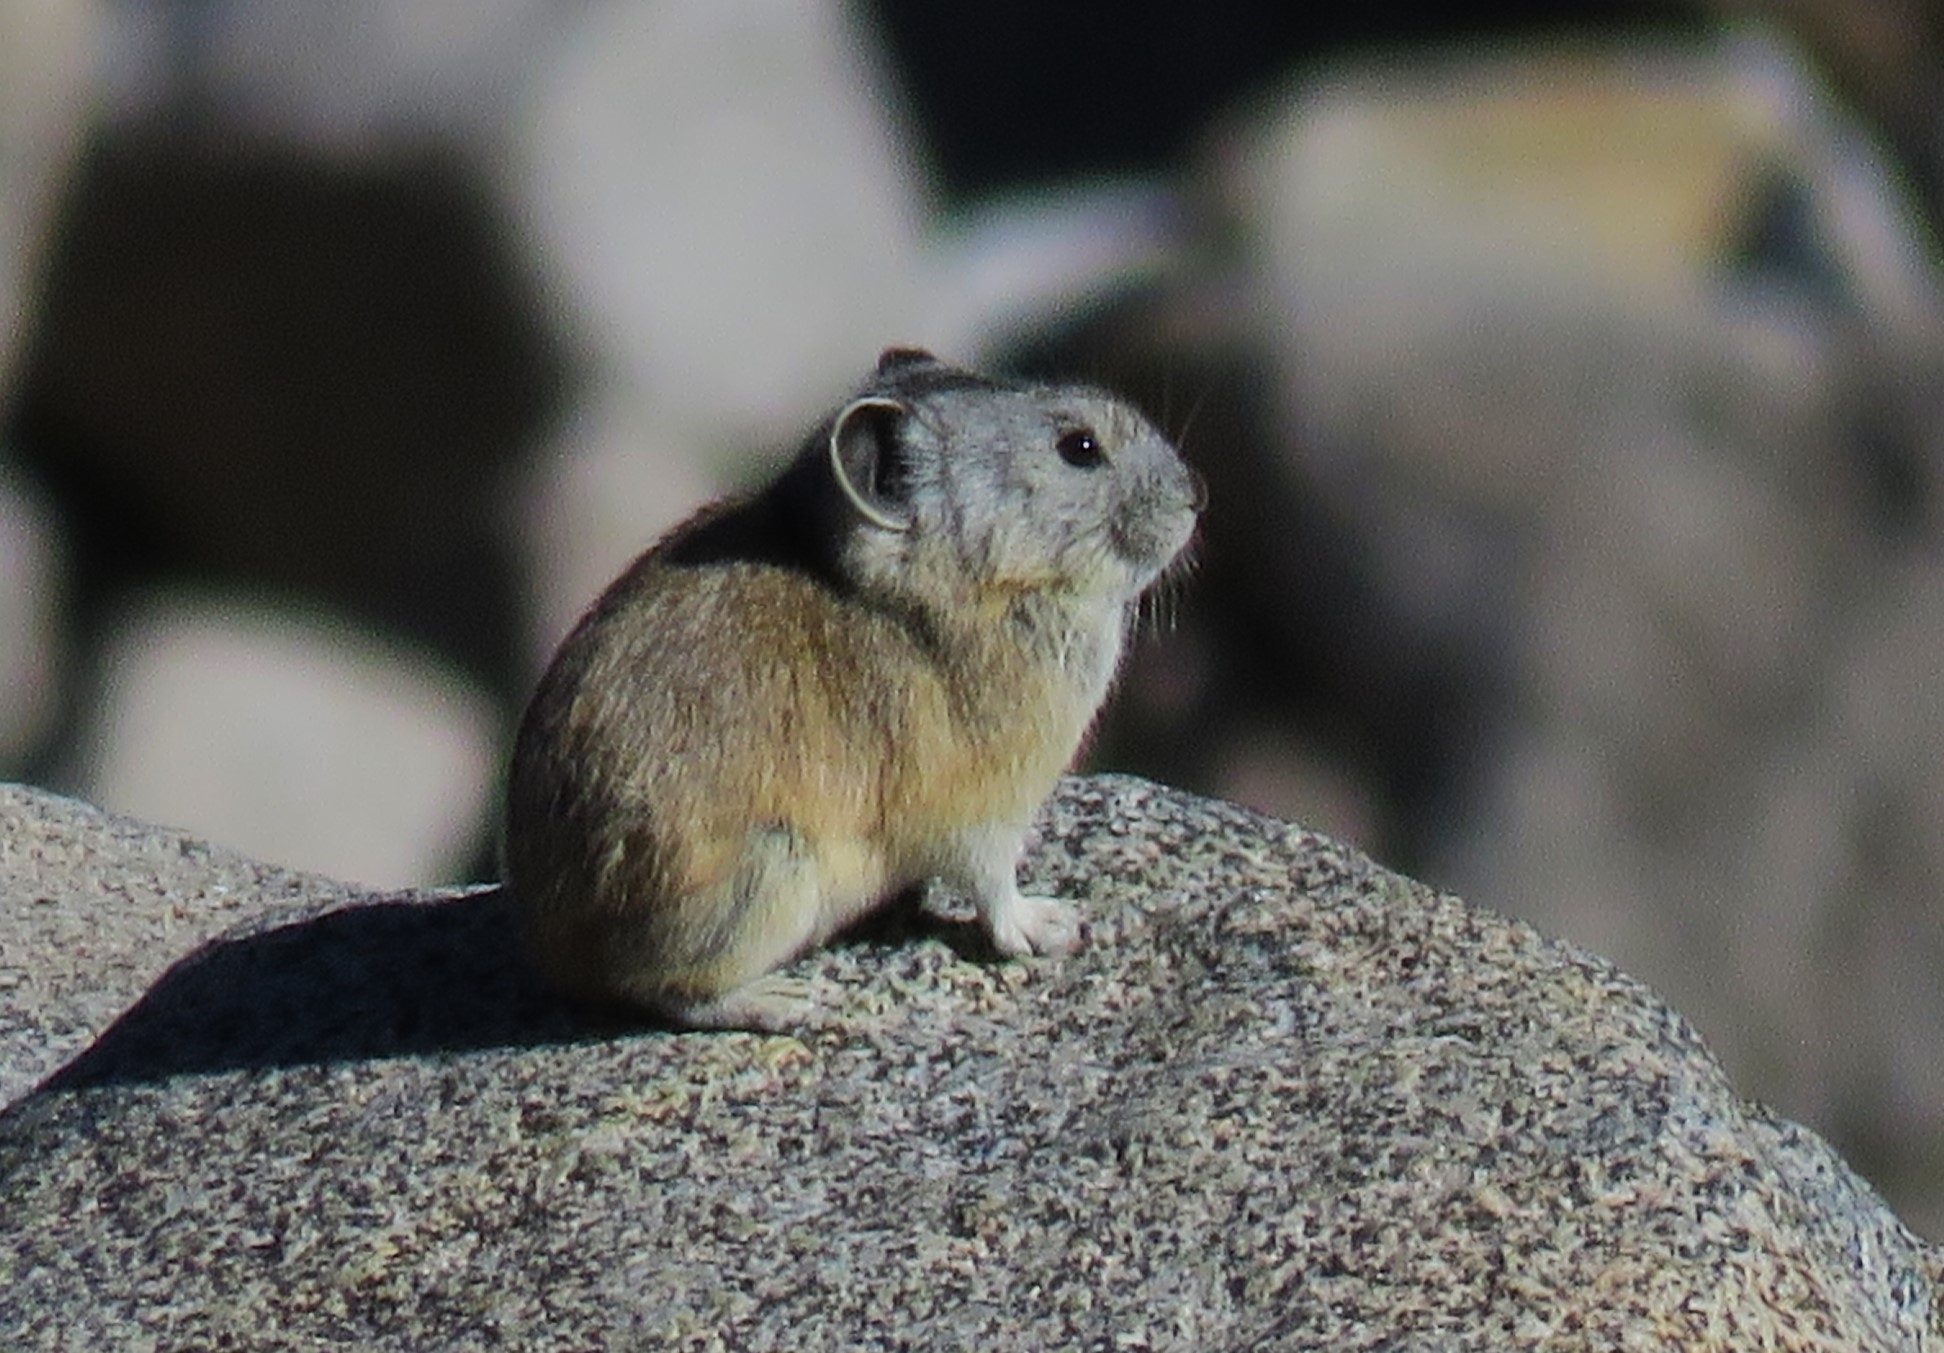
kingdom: Animalia
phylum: Chordata
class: Mammalia
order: Lagomorpha
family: Ochotonidae
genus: Ochotona
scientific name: Ochotona princeps
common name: American pika
